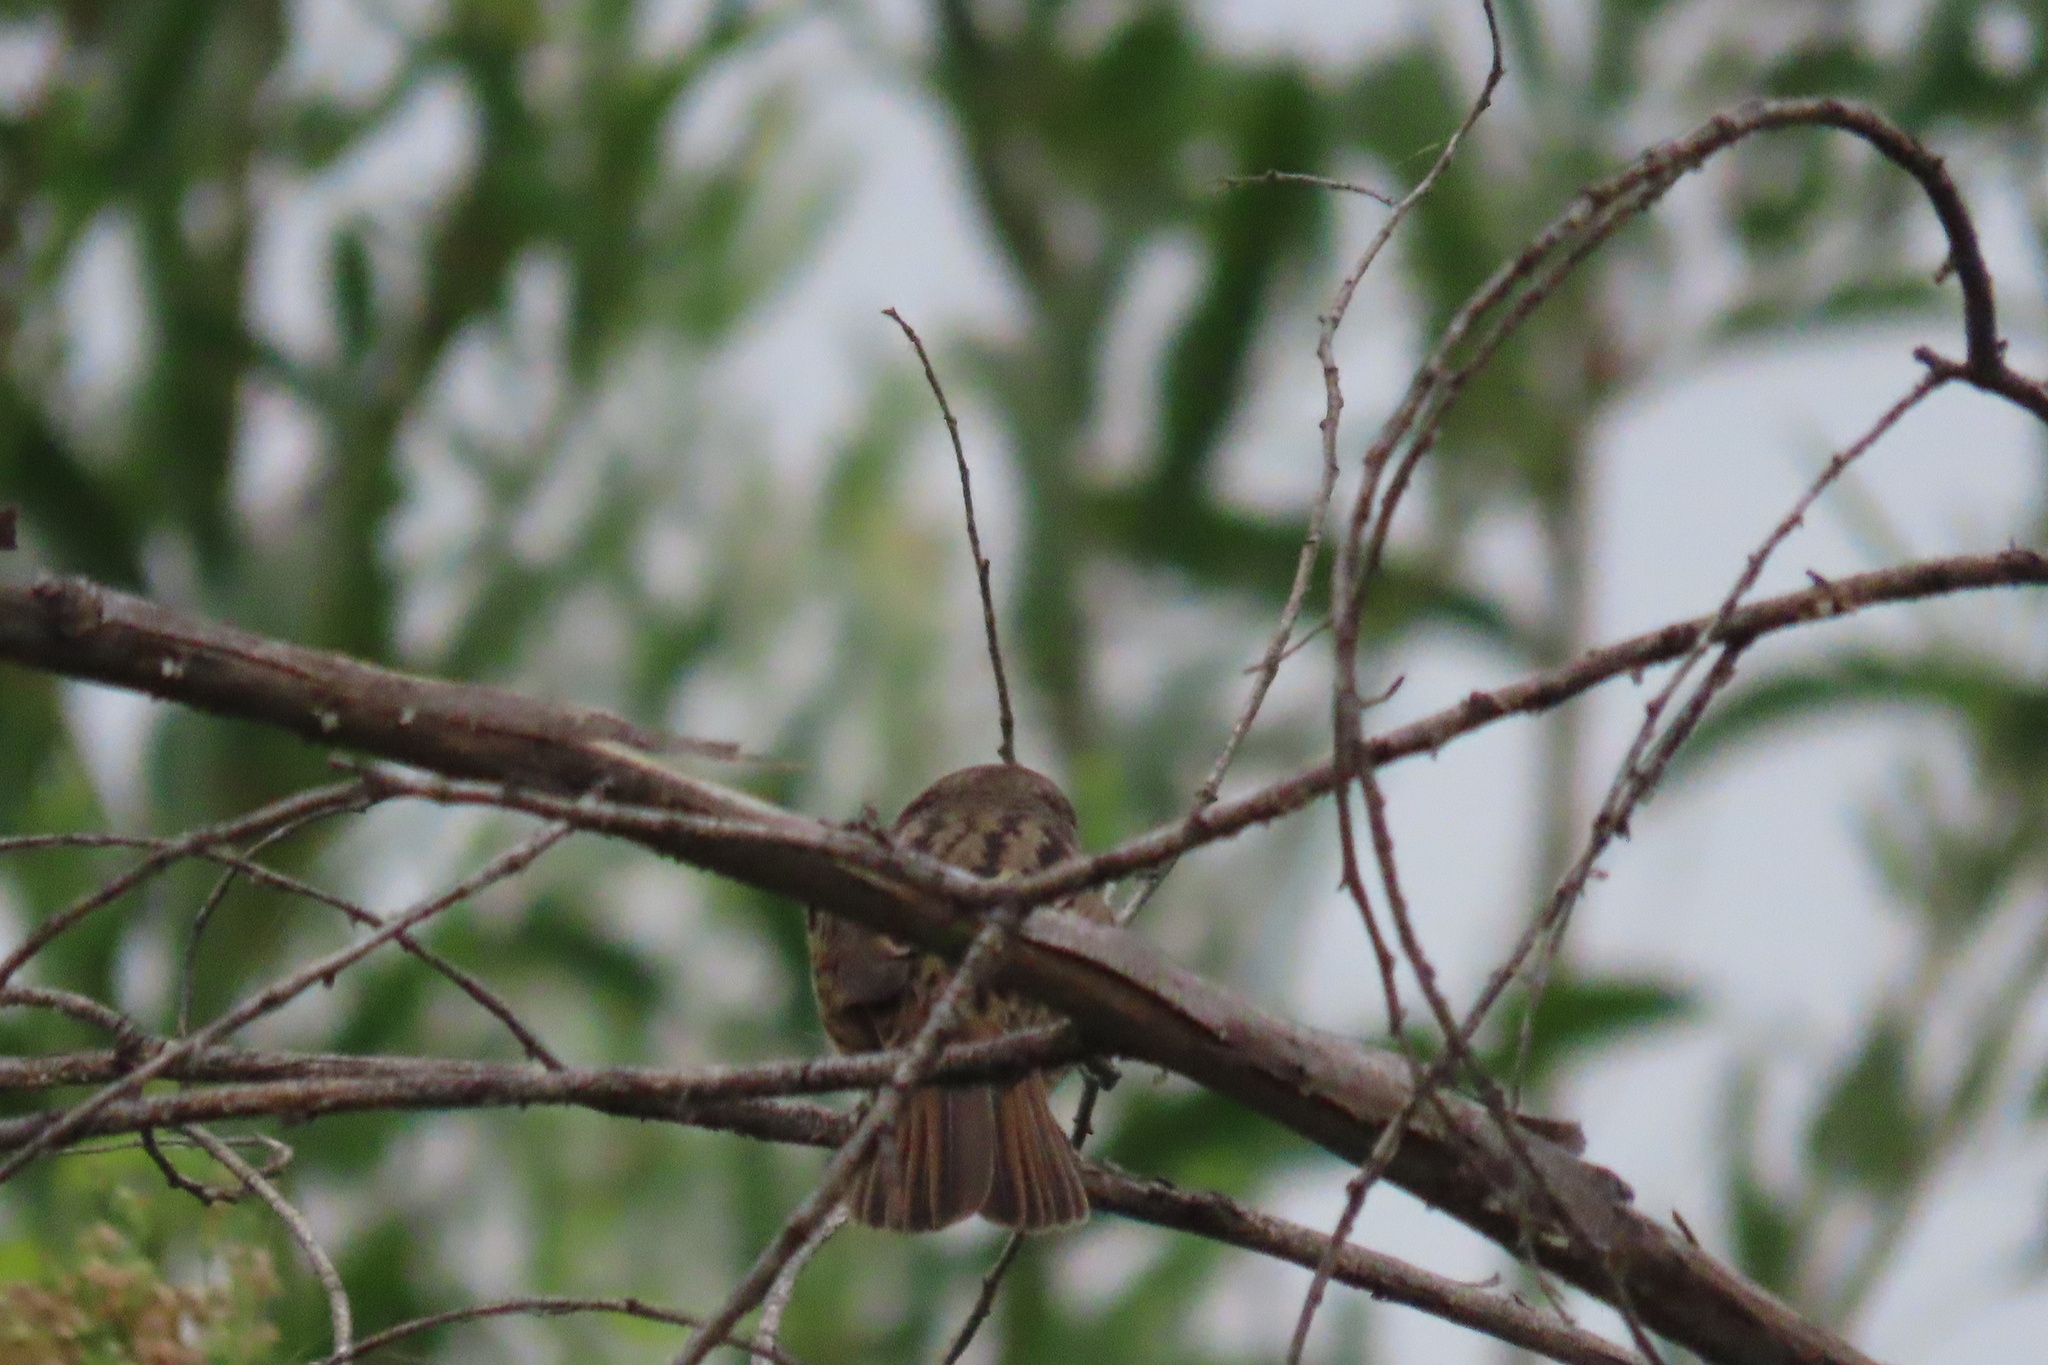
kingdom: Animalia
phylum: Chordata
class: Aves
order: Passeriformes
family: Passerellidae
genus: Melospiza
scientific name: Melospiza melodia
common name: Song sparrow
